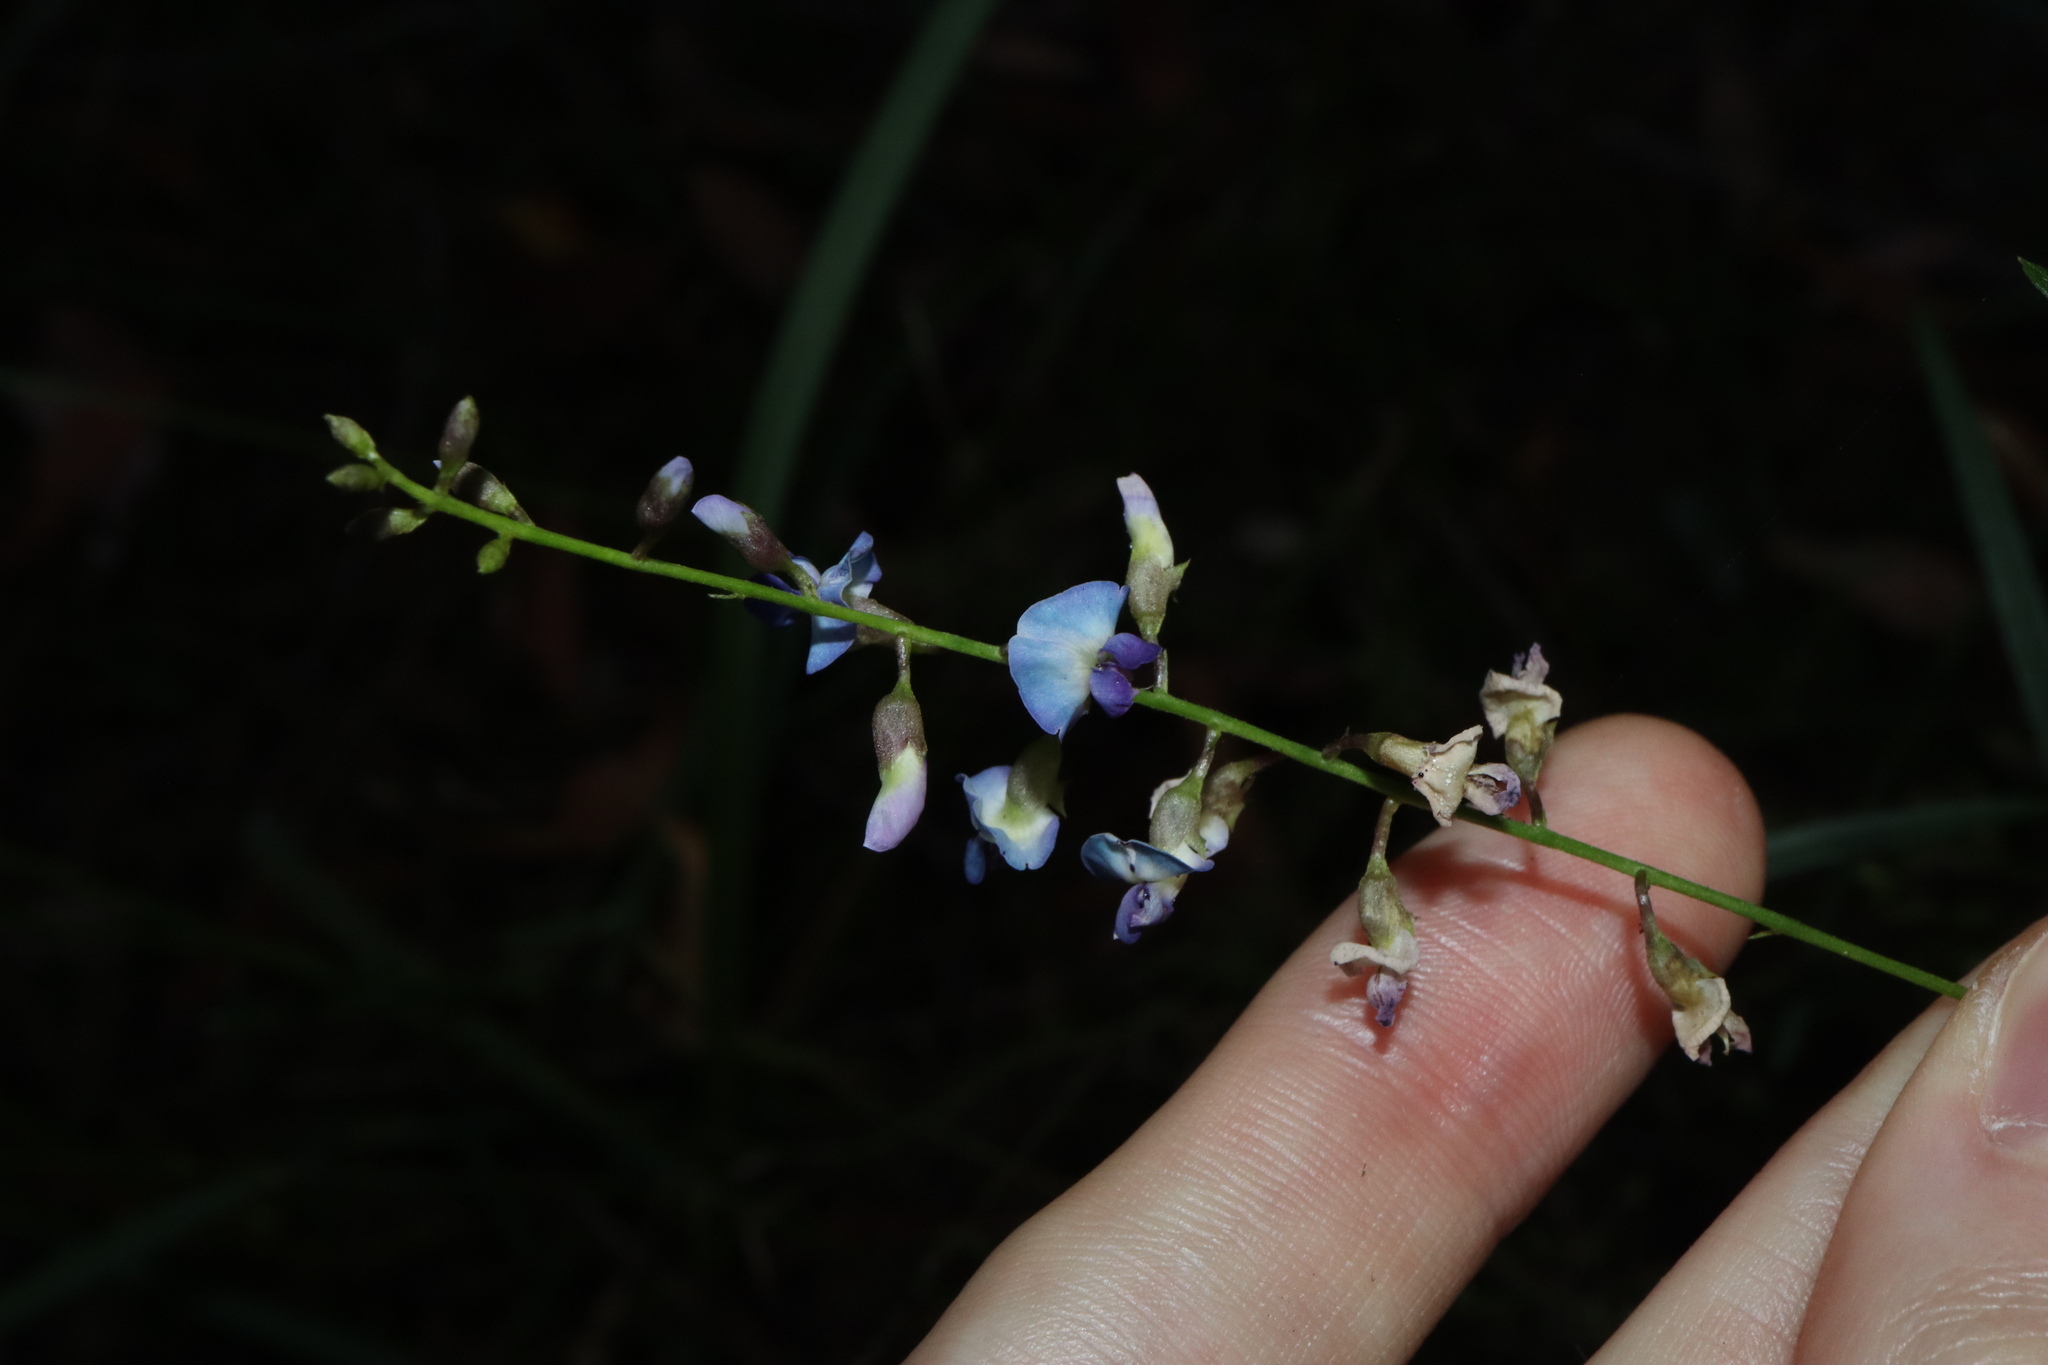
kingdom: Plantae
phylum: Tracheophyta
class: Magnoliopsida
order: Fabales
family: Fabaceae
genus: Glycine
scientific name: Glycine clandestina
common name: Twining glycine
